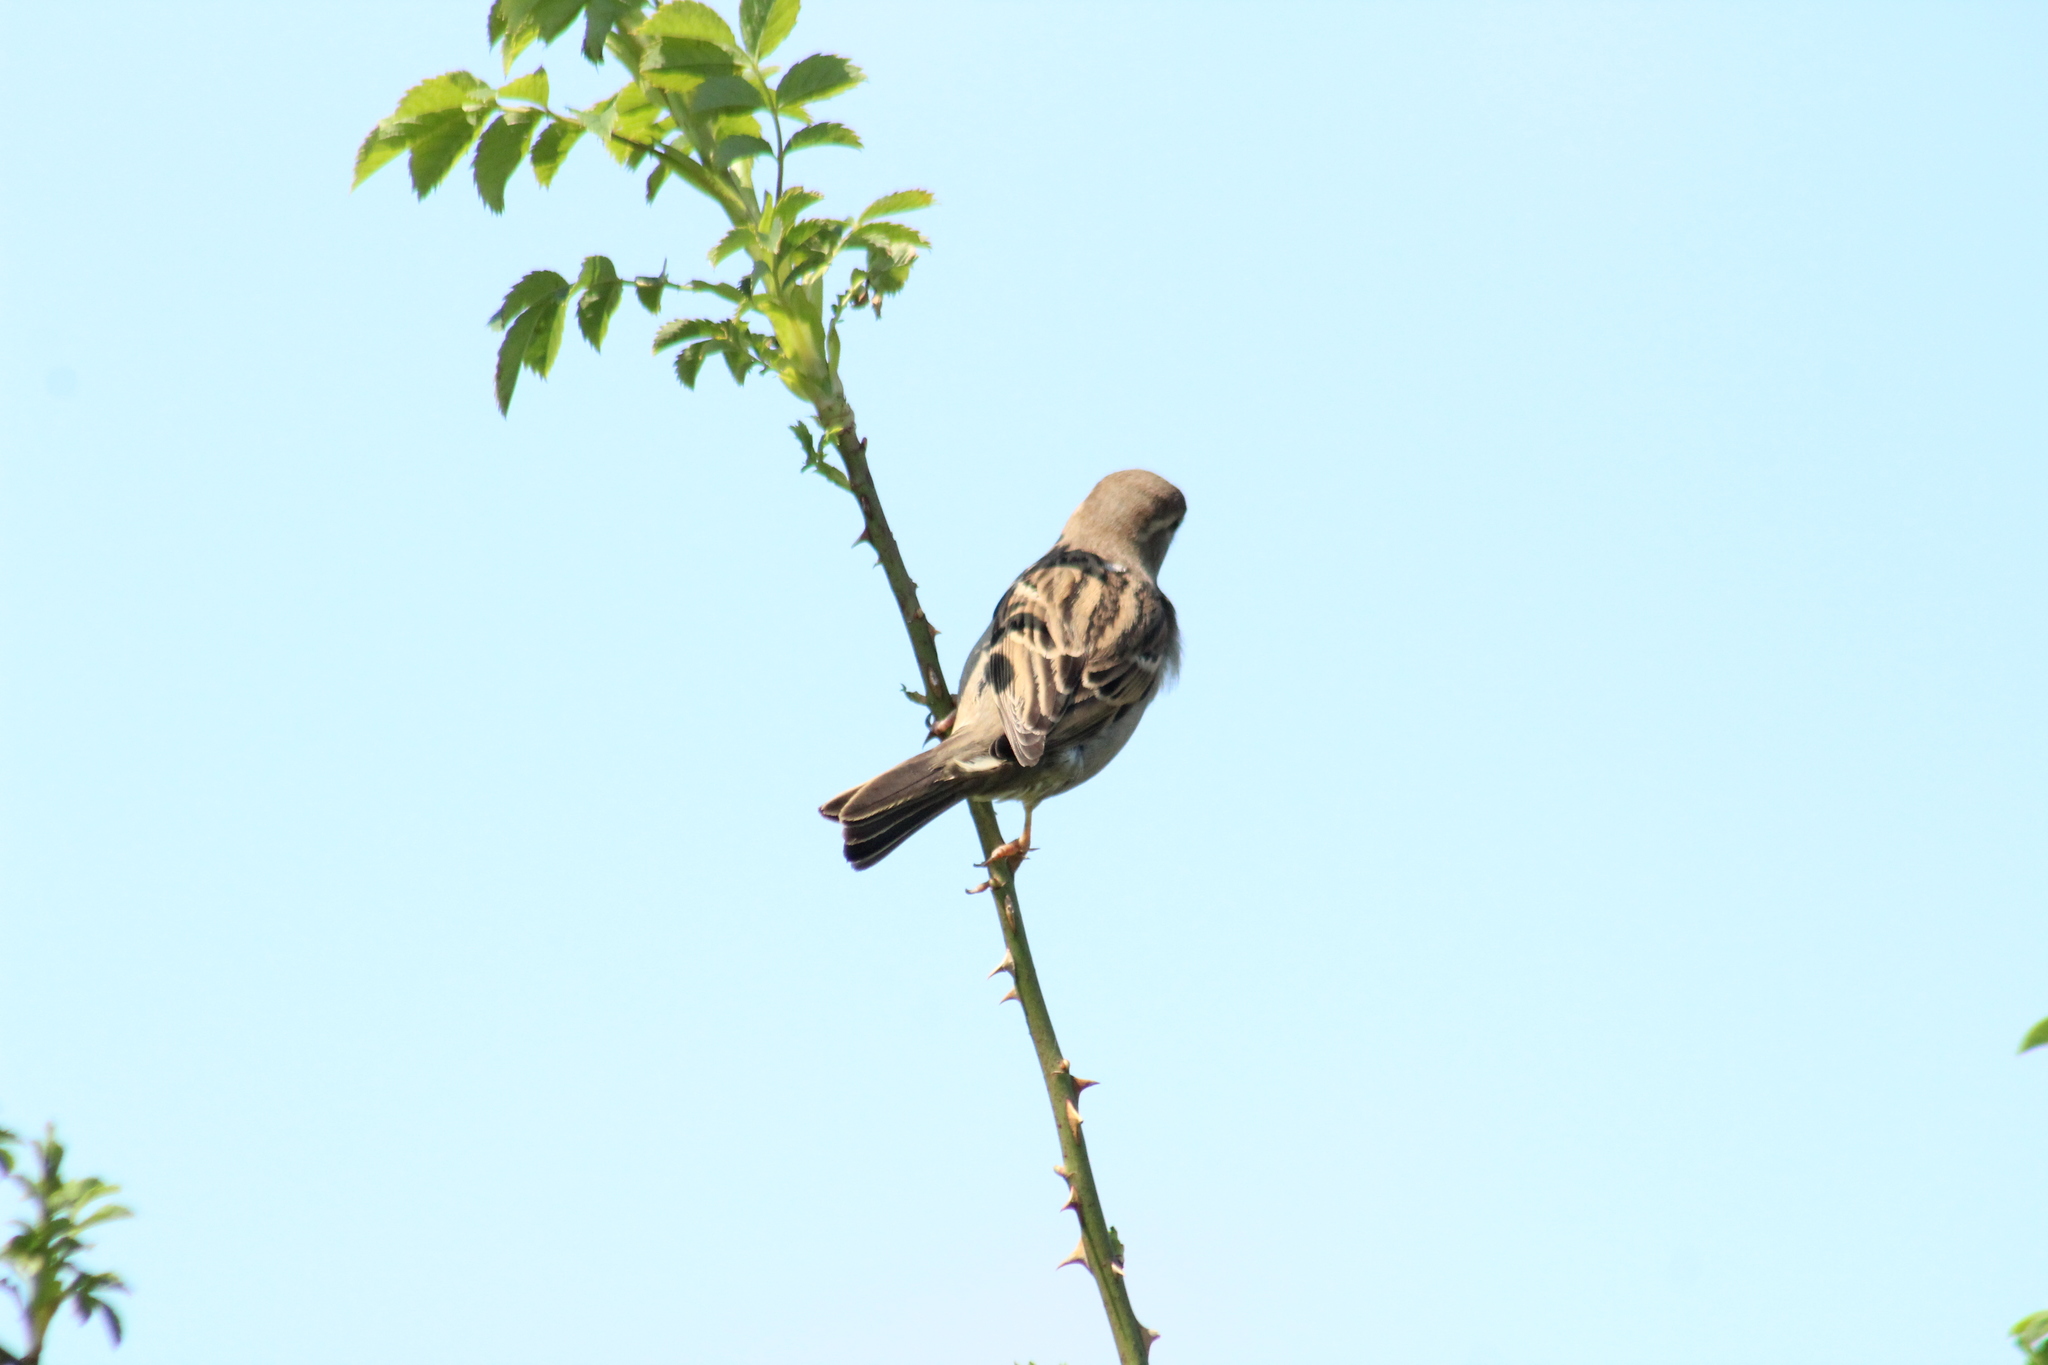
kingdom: Animalia
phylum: Chordata
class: Aves
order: Passeriformes
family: Passeridae
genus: Passer
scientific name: Passer domesticus
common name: House sparrow
